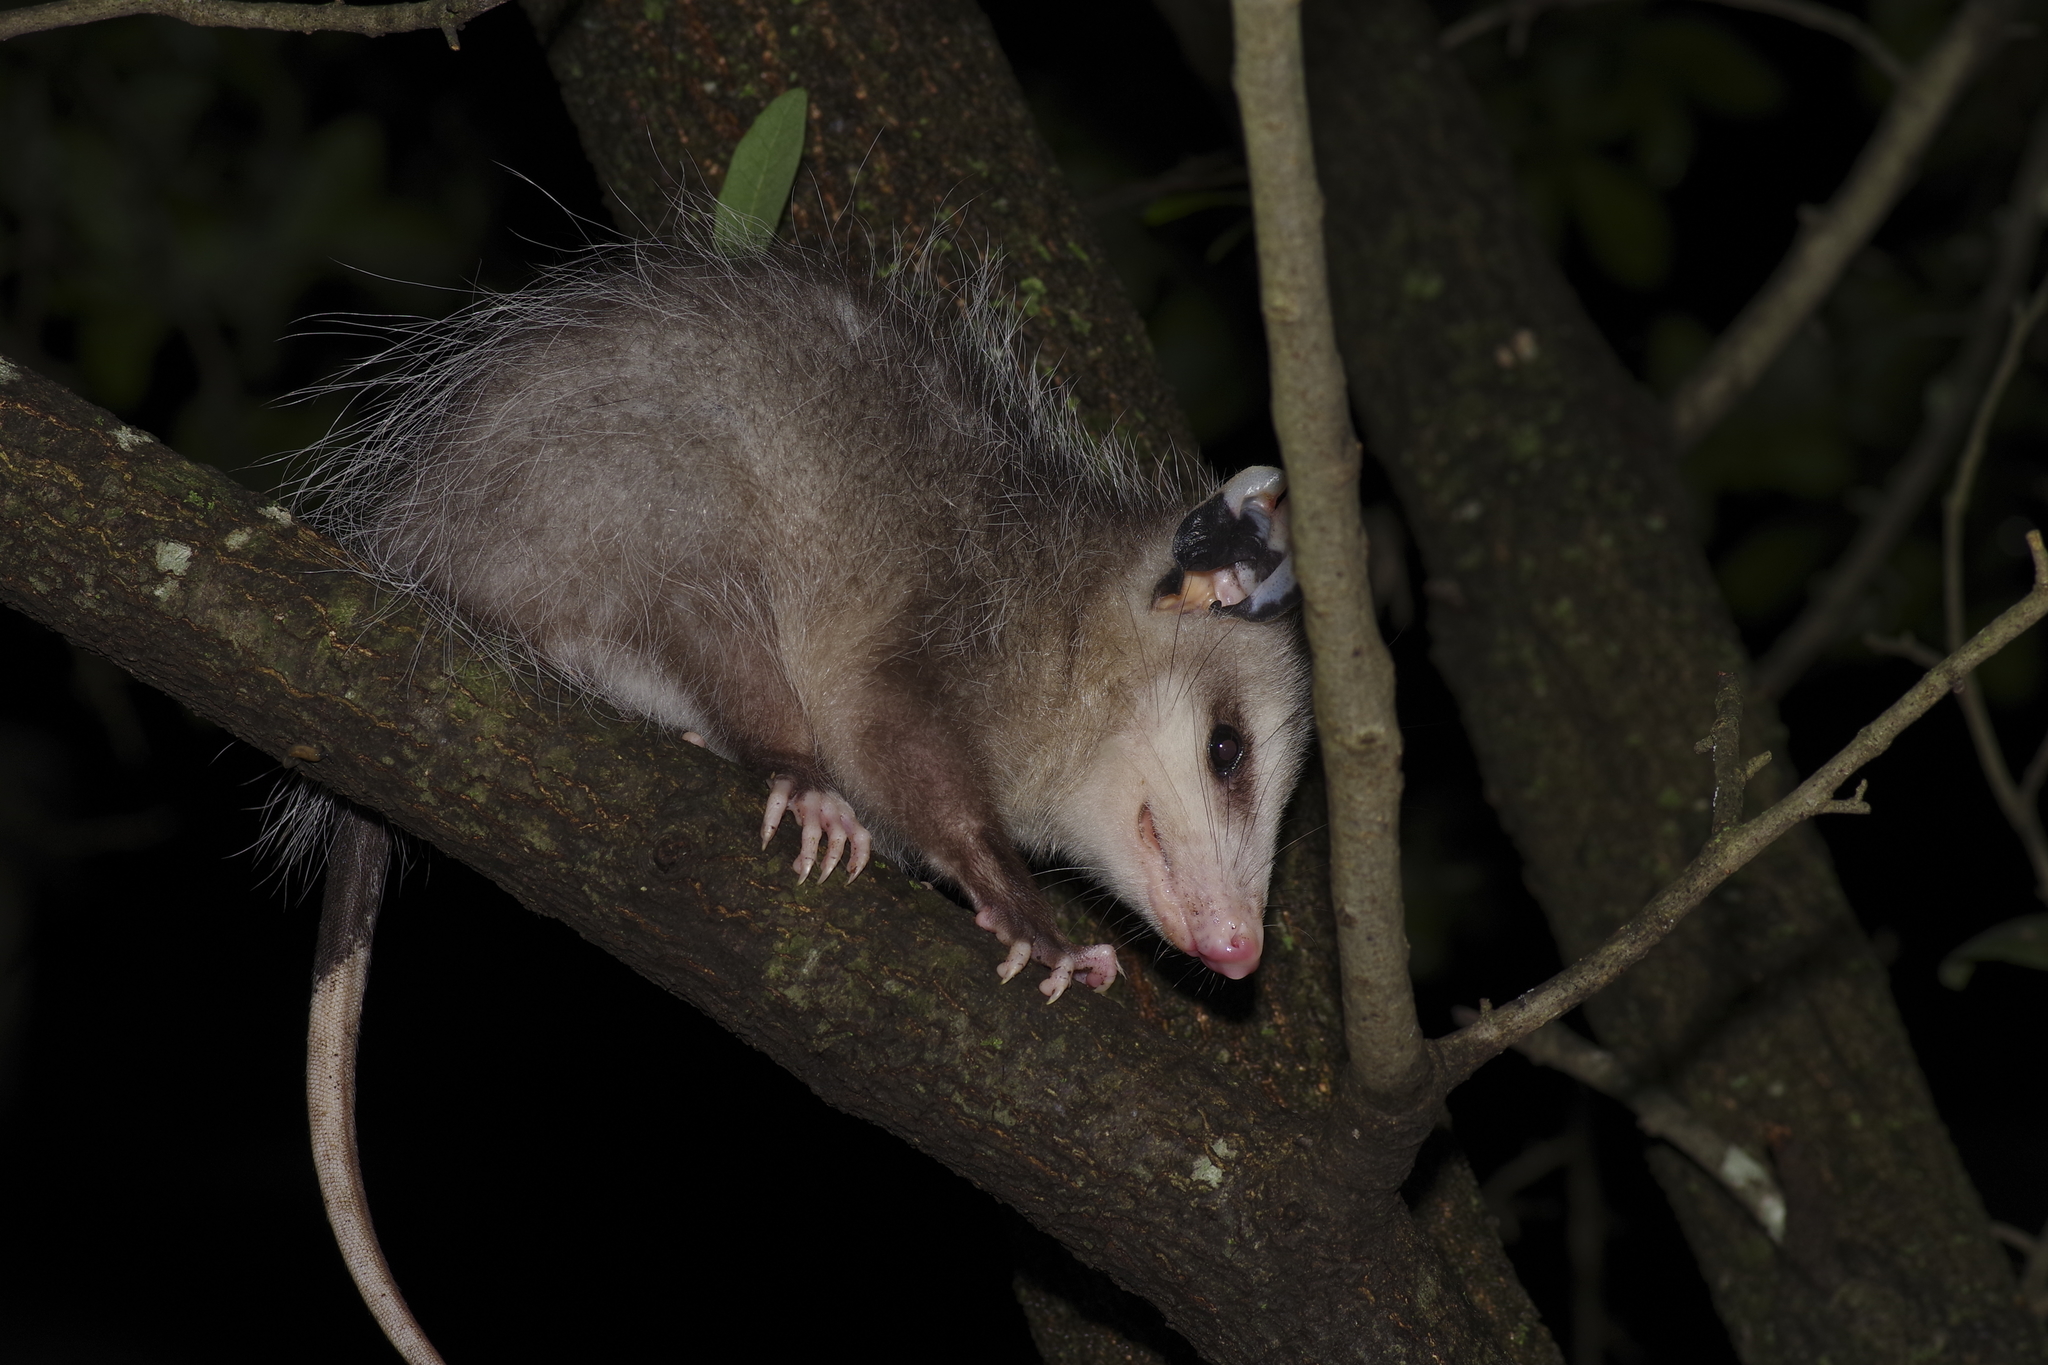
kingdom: Animalia
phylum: Chordata
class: Mammalia
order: Didelphimorphia
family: Didelphidae
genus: Didelphis
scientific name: Didelphis virginiana
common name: Virginia opossum
